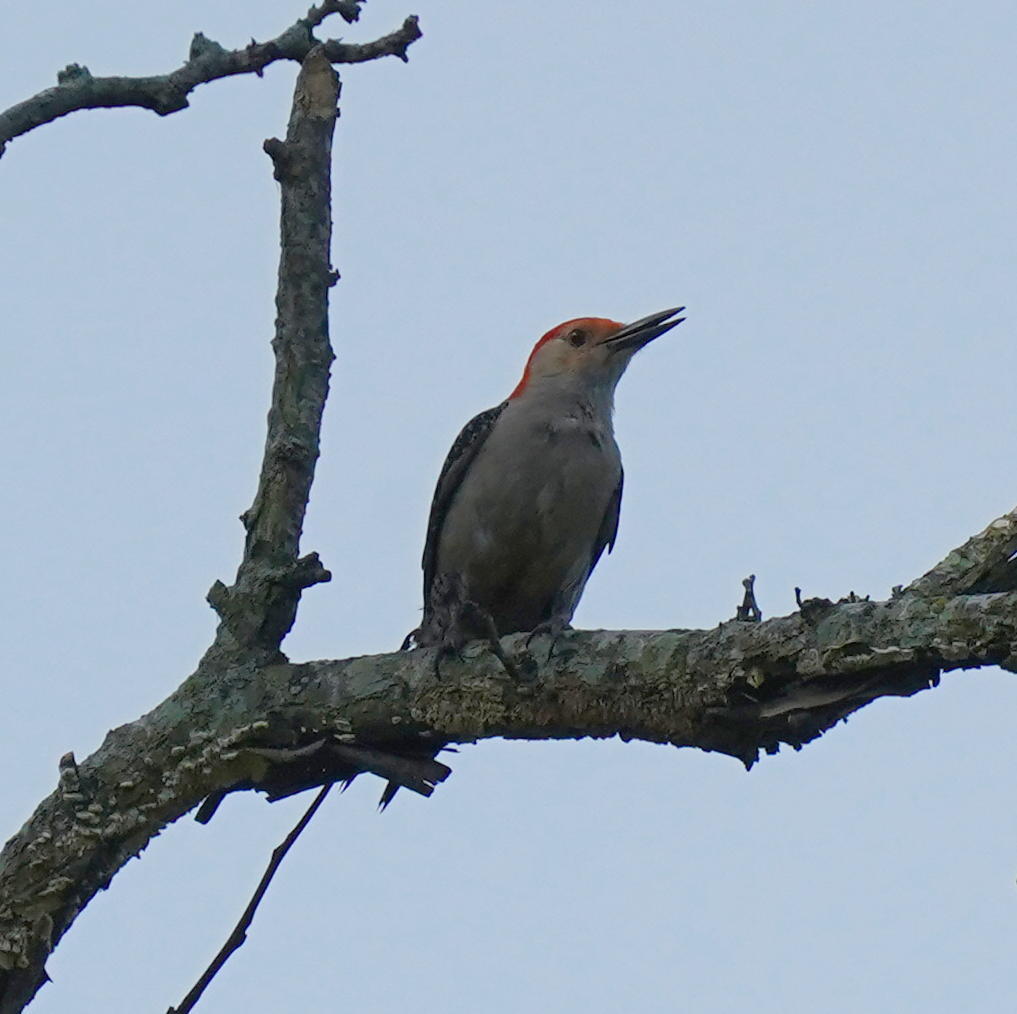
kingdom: Animalia
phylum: Chordata
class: Aves
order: Piciformes
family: Picidae
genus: Melanerpes
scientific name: Melanerpes carolinus
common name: Red-bellied woodpecker
